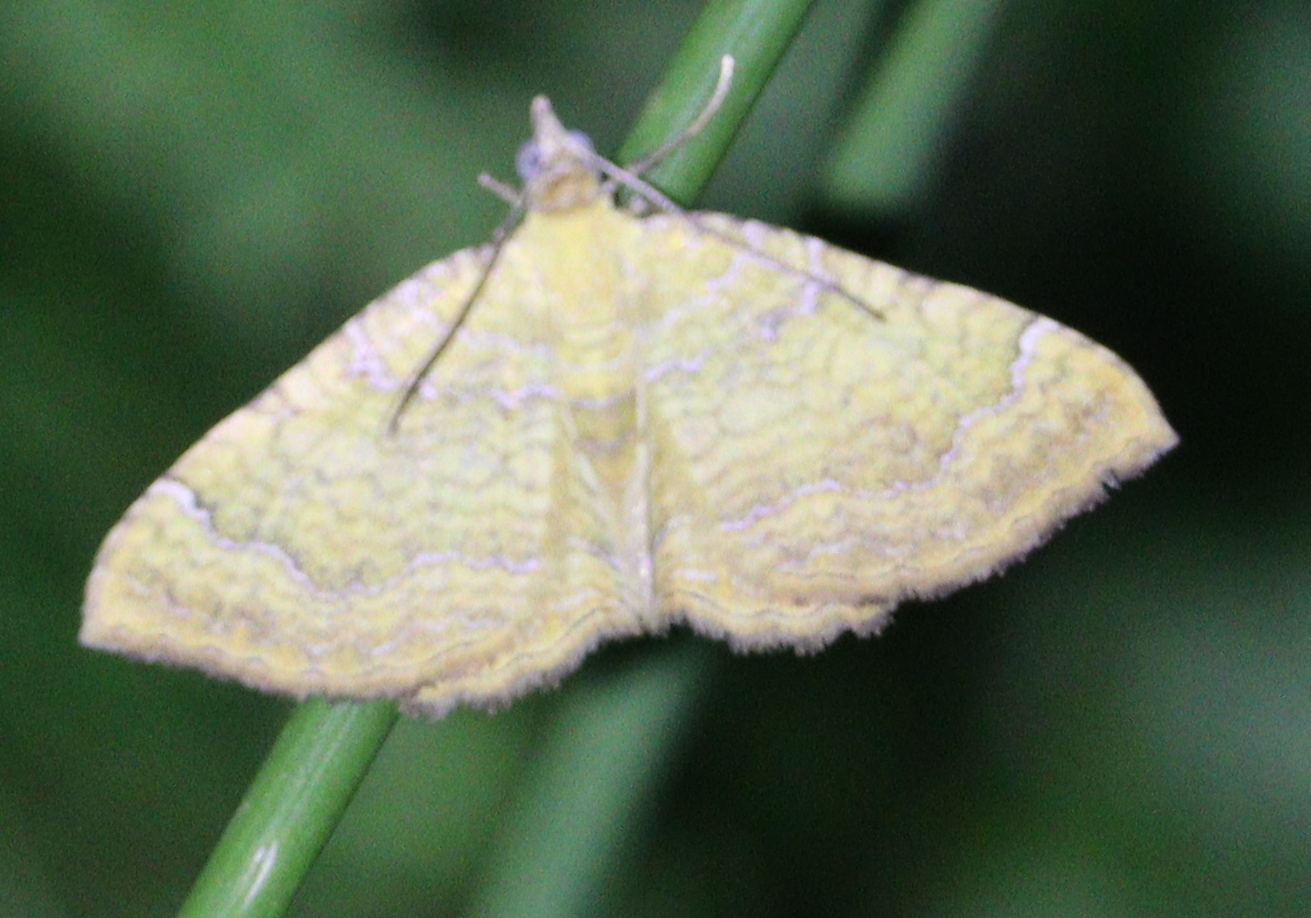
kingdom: Animalia
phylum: Arthropoda
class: Insecta
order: Lepidoptera
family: Geometridae
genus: Camptogramma
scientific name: Camptogramma bilineata
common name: Yellow shell
